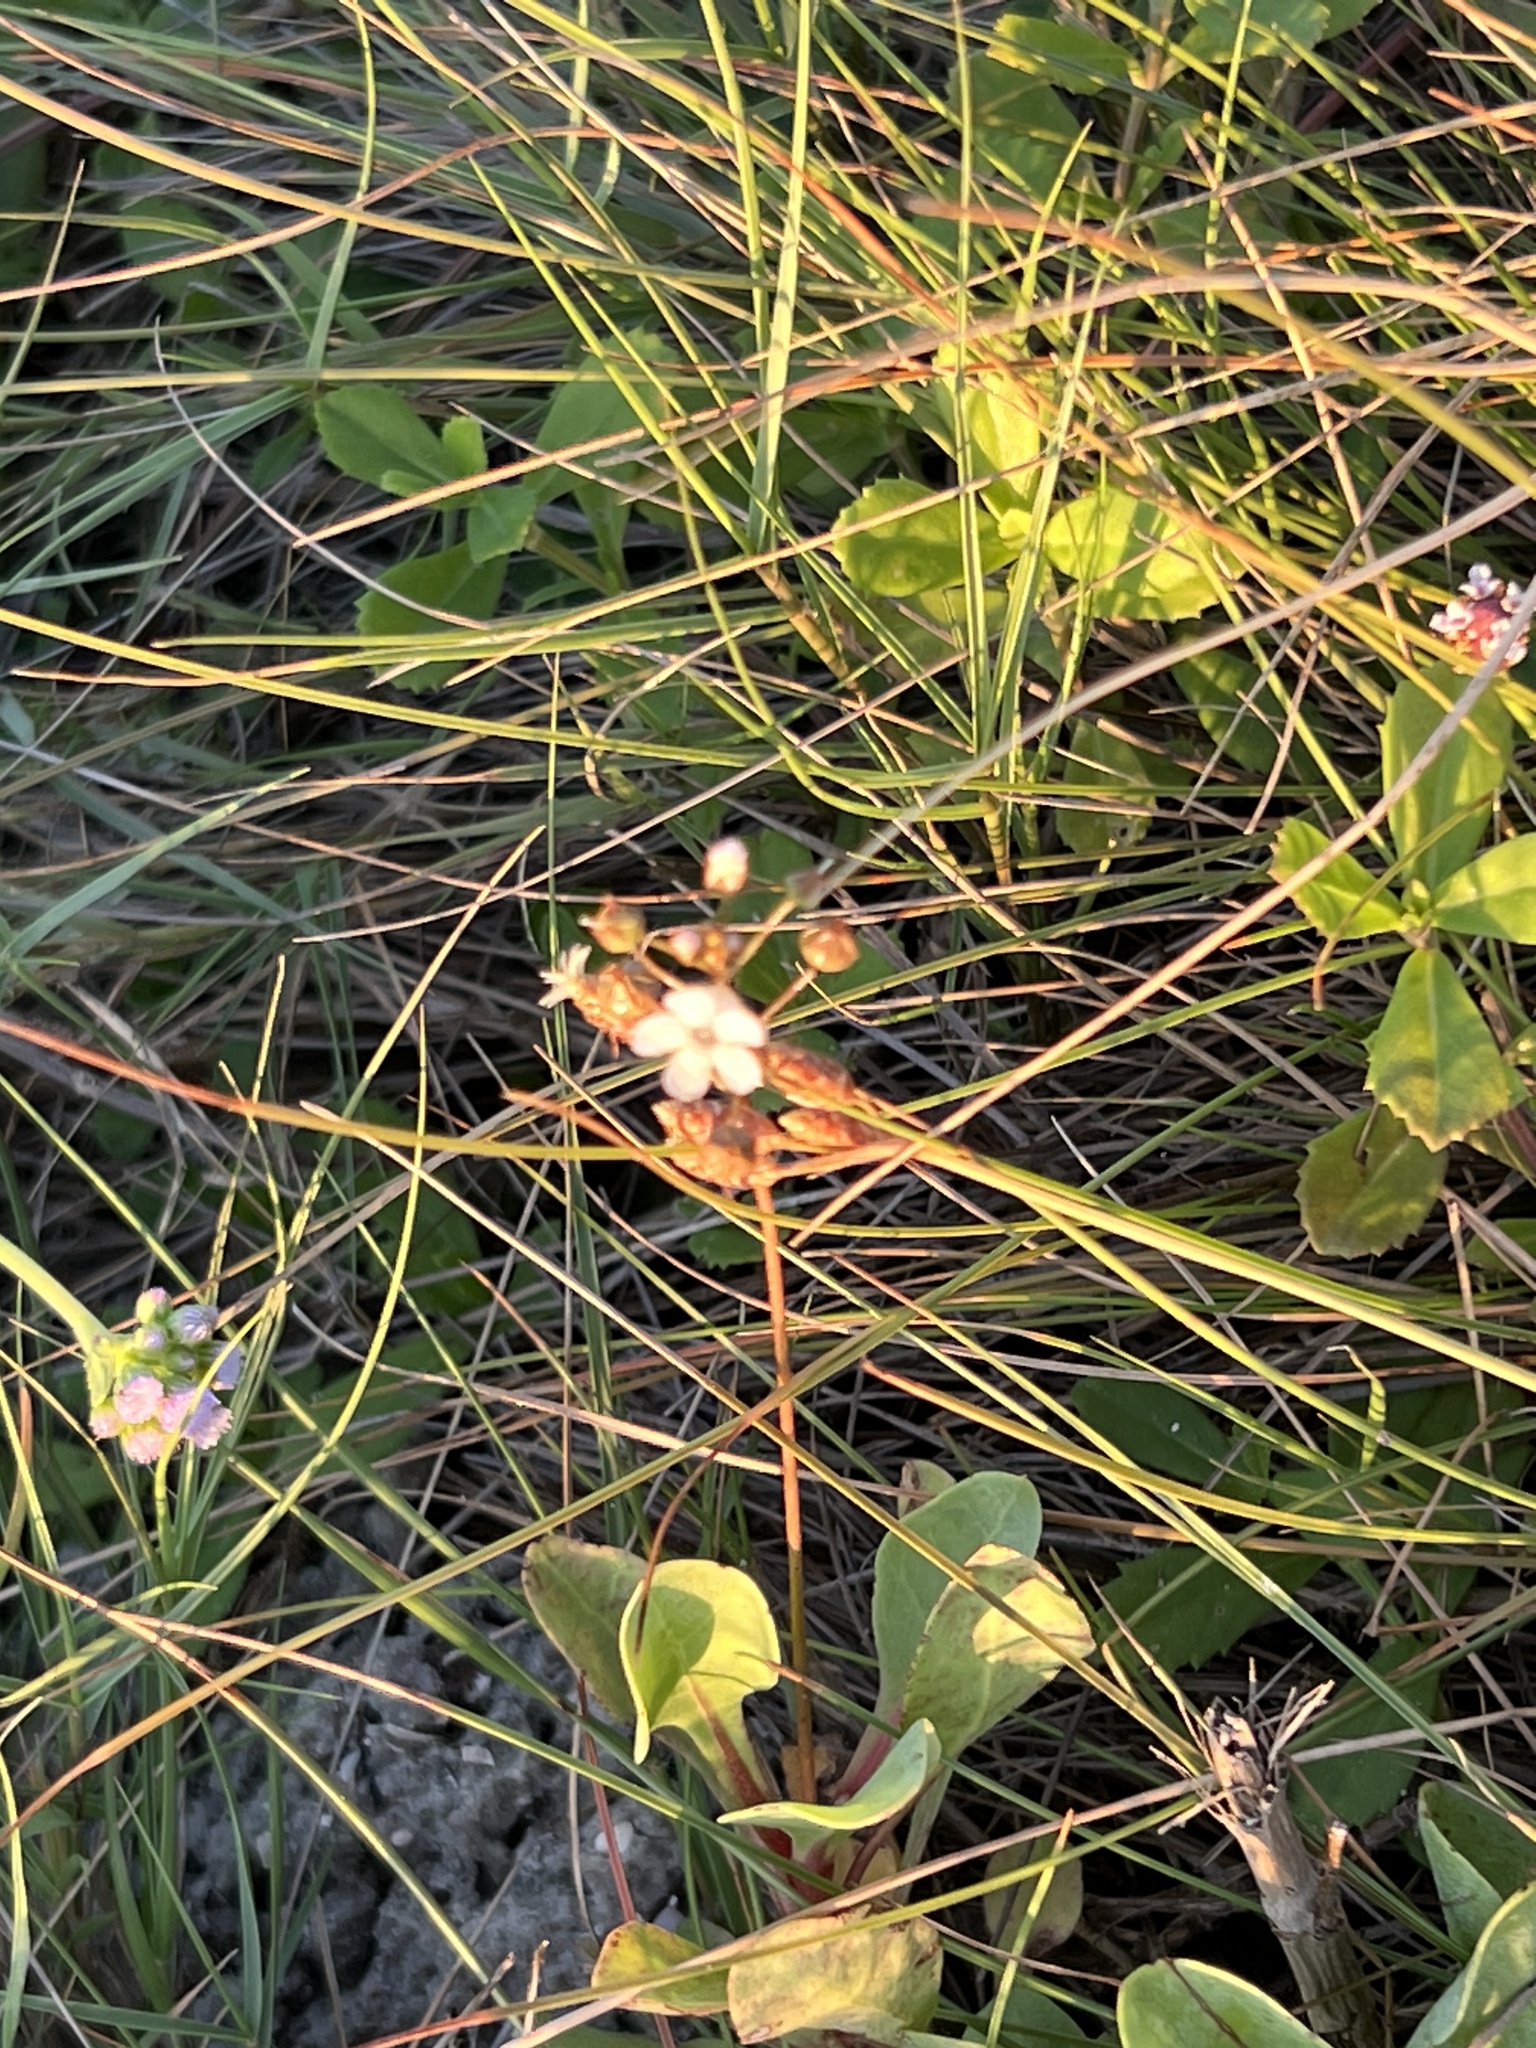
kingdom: Plantae
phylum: Tracheophyta
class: Magnoliopsida
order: Ericales
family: Primulaceae
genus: Samolus
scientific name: Samolus ebracteatus
